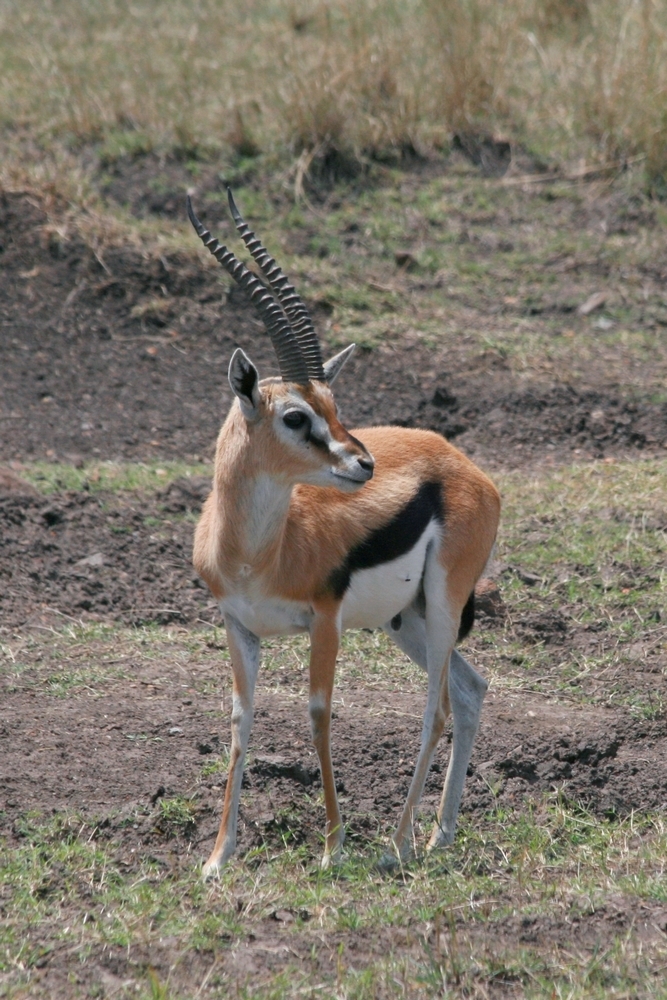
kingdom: Animalia
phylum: Chordata
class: Mammalia
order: Artiodactyla
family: Bovidae
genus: Eudorcas
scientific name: Eudorcas thomsonii
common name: Thomson's gazelle
